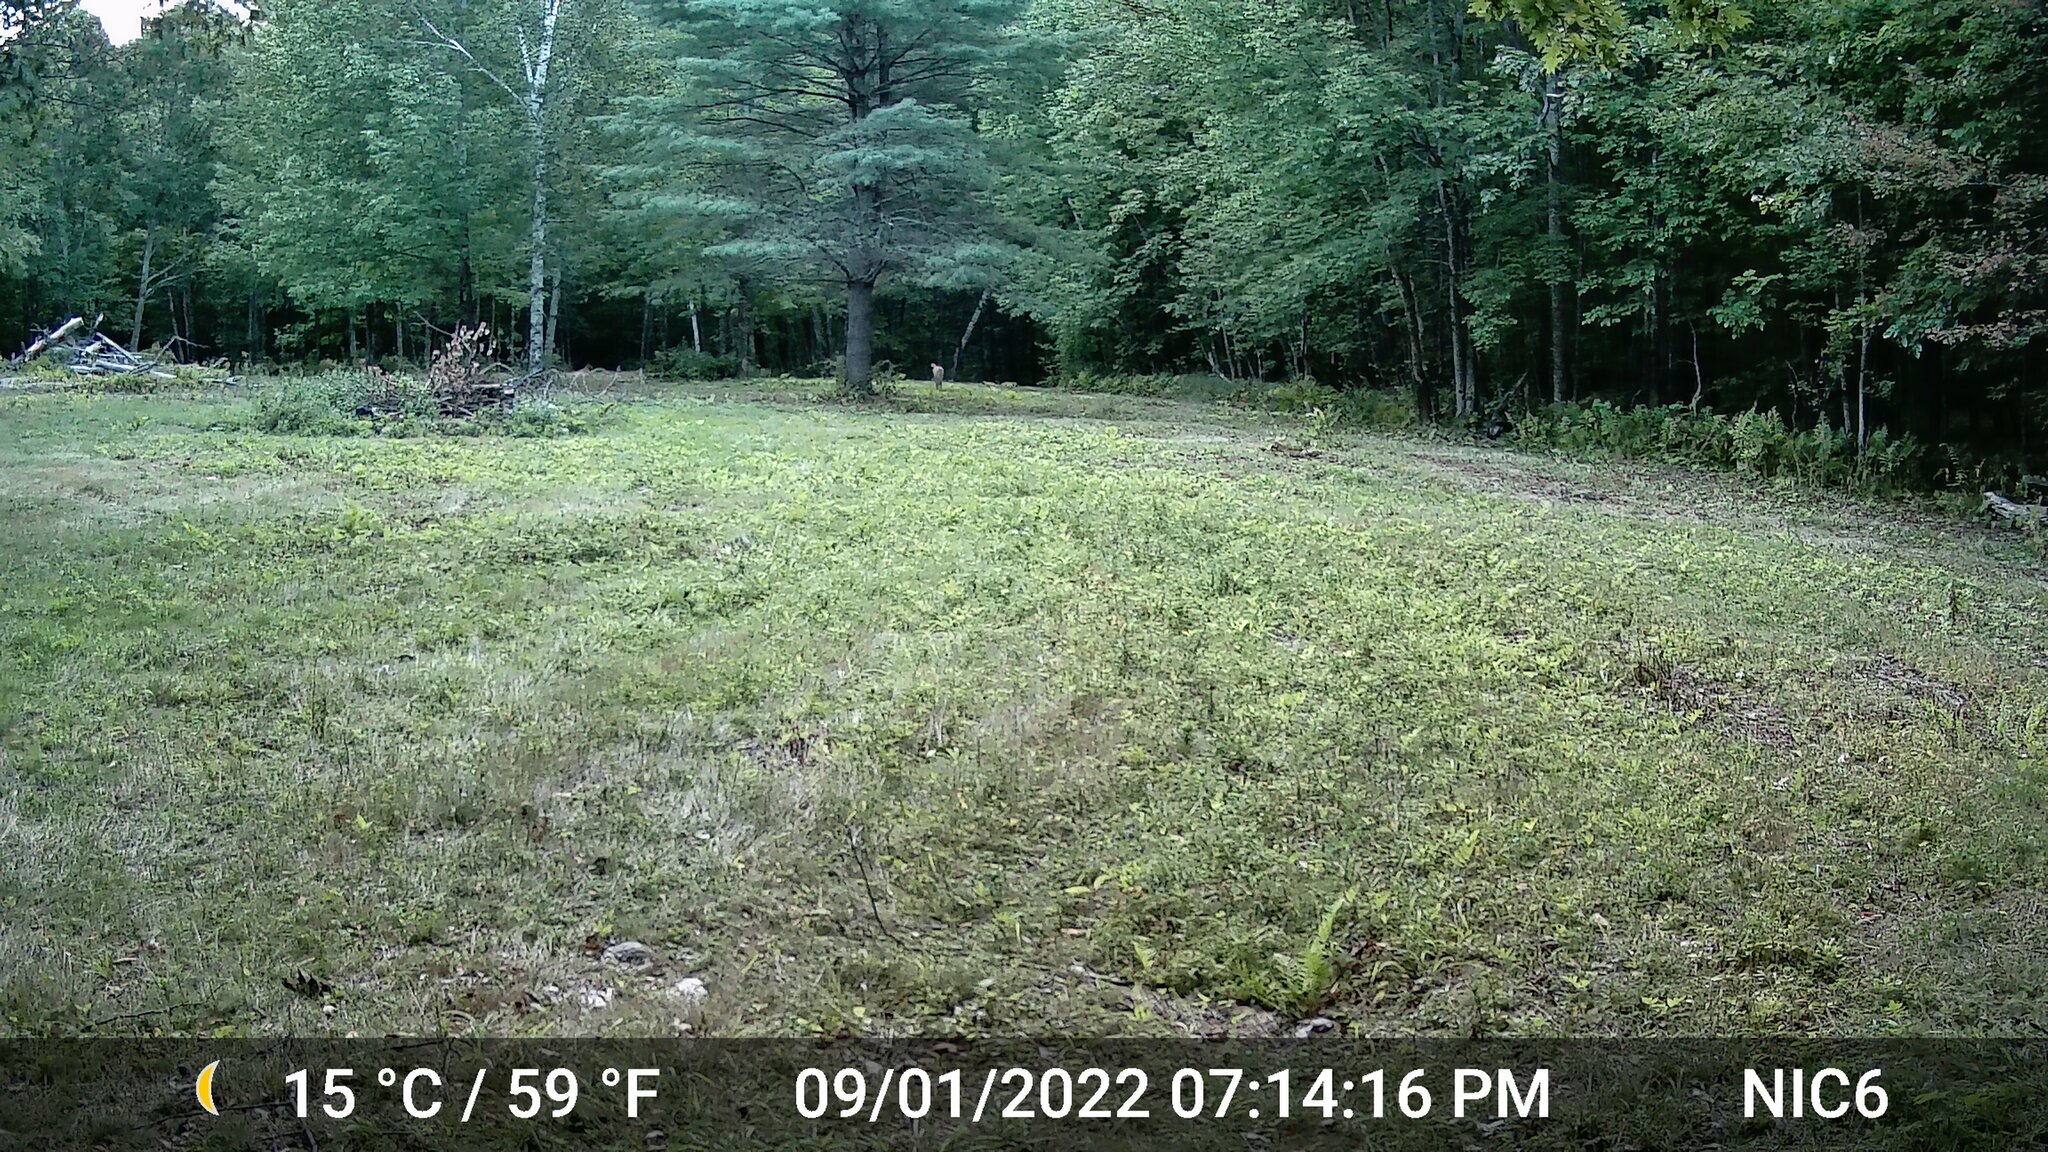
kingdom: Animalia
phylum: Chordata
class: Mammalia
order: Artiodactyla
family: Cervidae
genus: Odocoileus
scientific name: Odocoileus virginianus
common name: White-tailed deer
